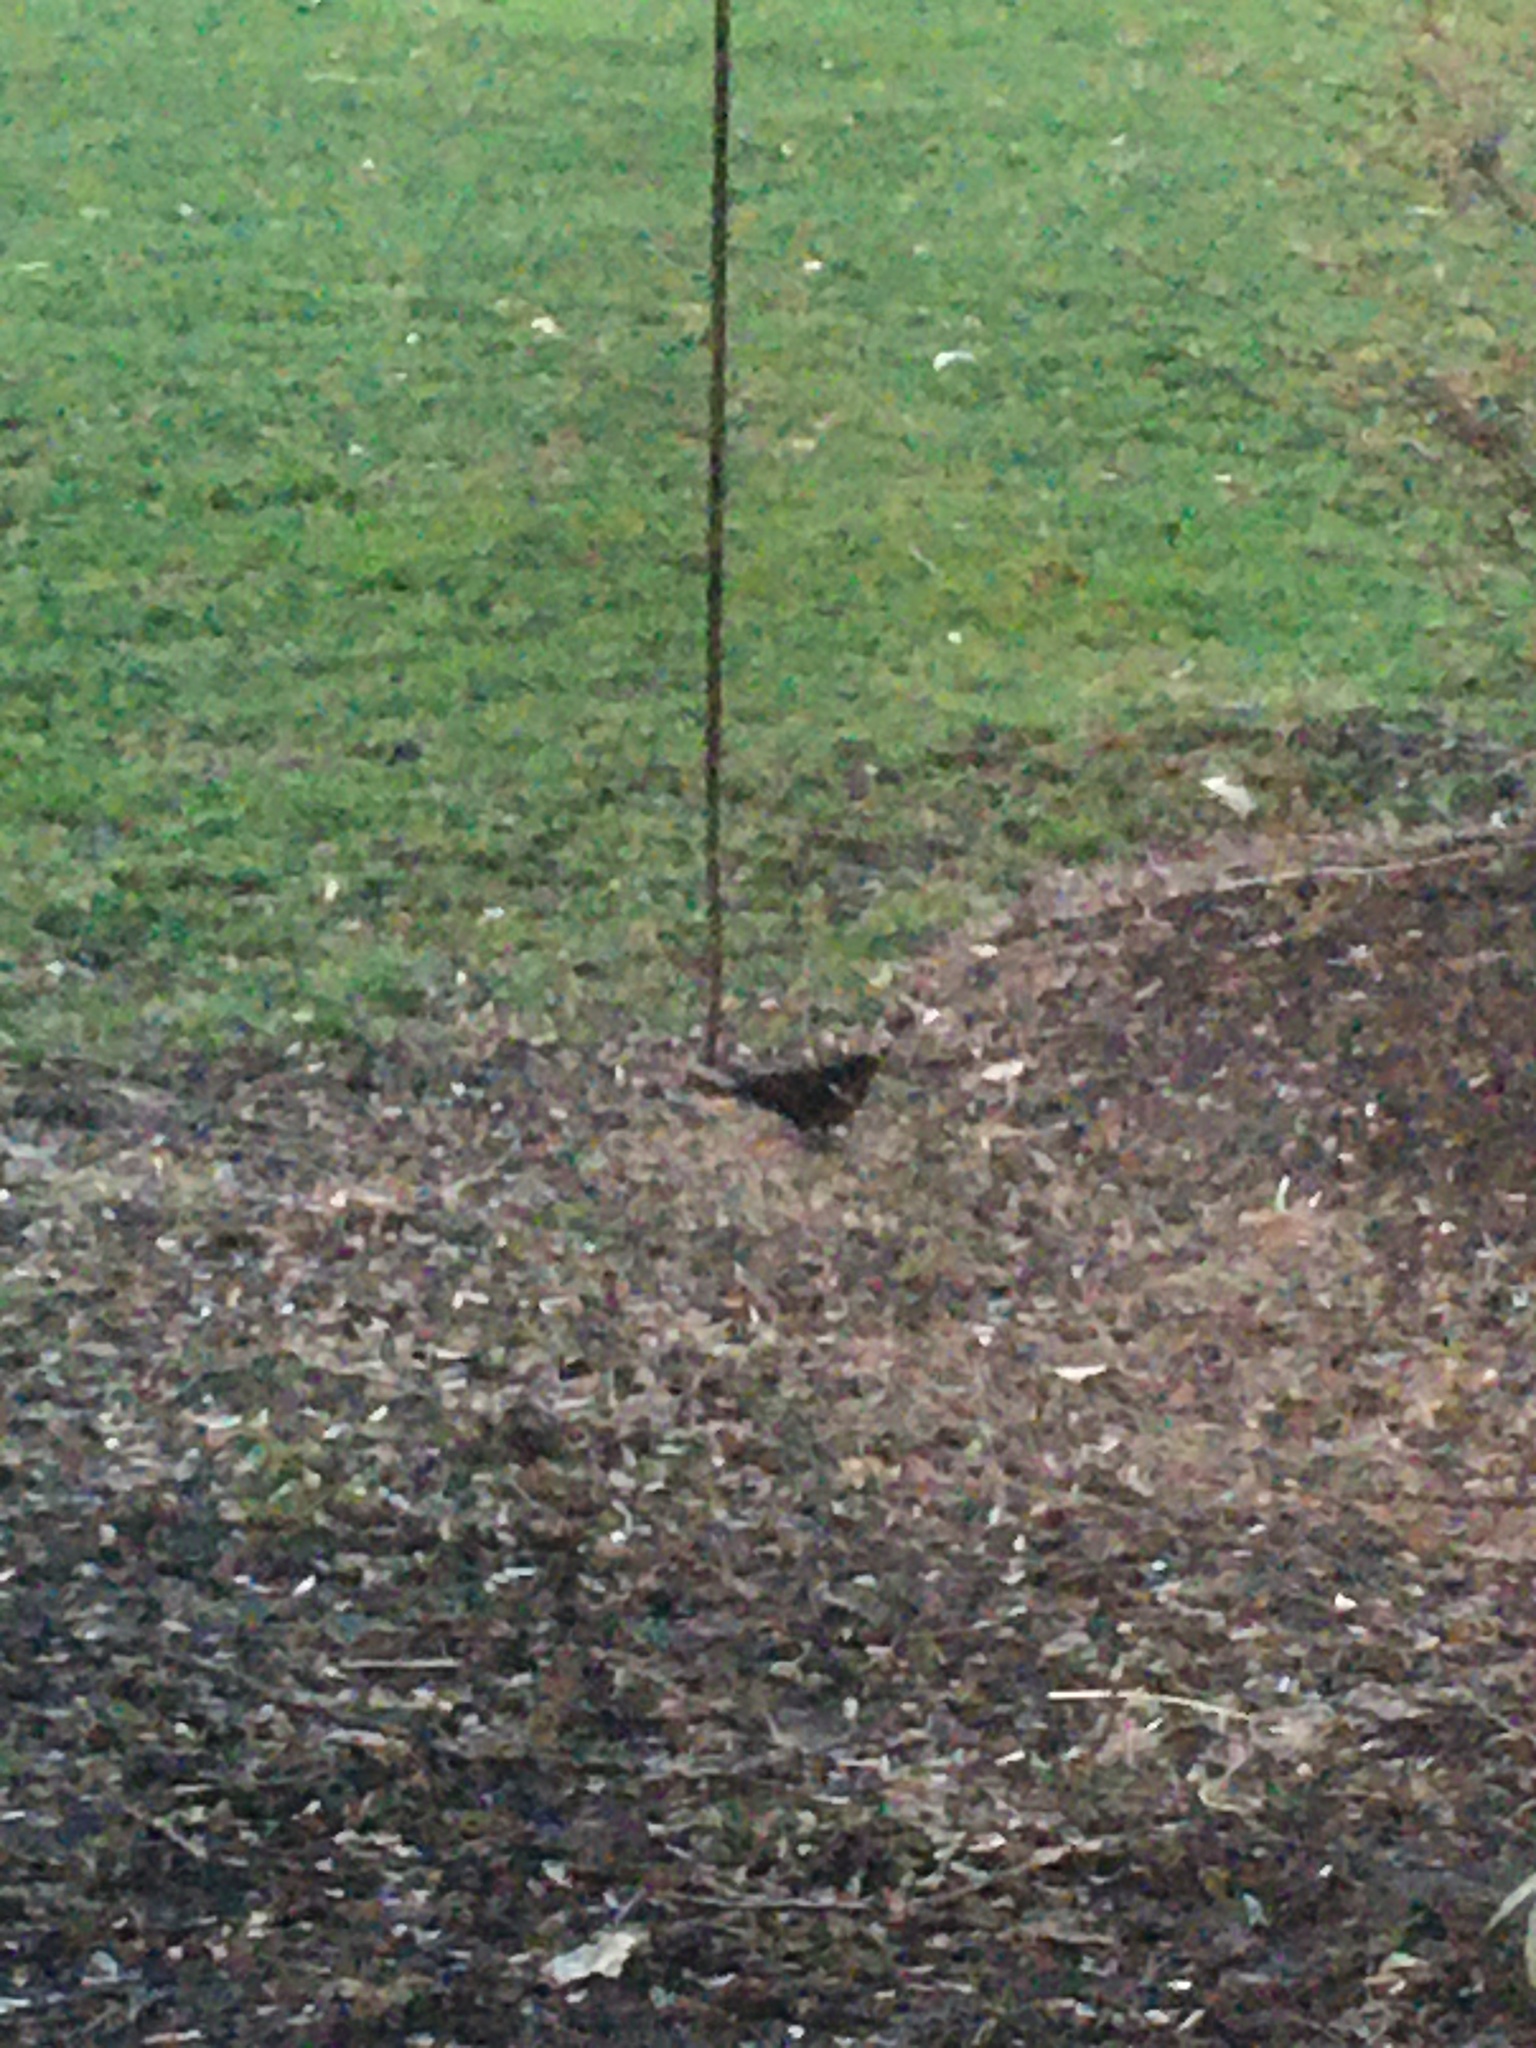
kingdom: Animalia
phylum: Chordata
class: Aves
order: Passeriformes
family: Icteridae
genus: Agelaius
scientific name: Agelaius phoeniceus
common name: Red-winged blackbird
